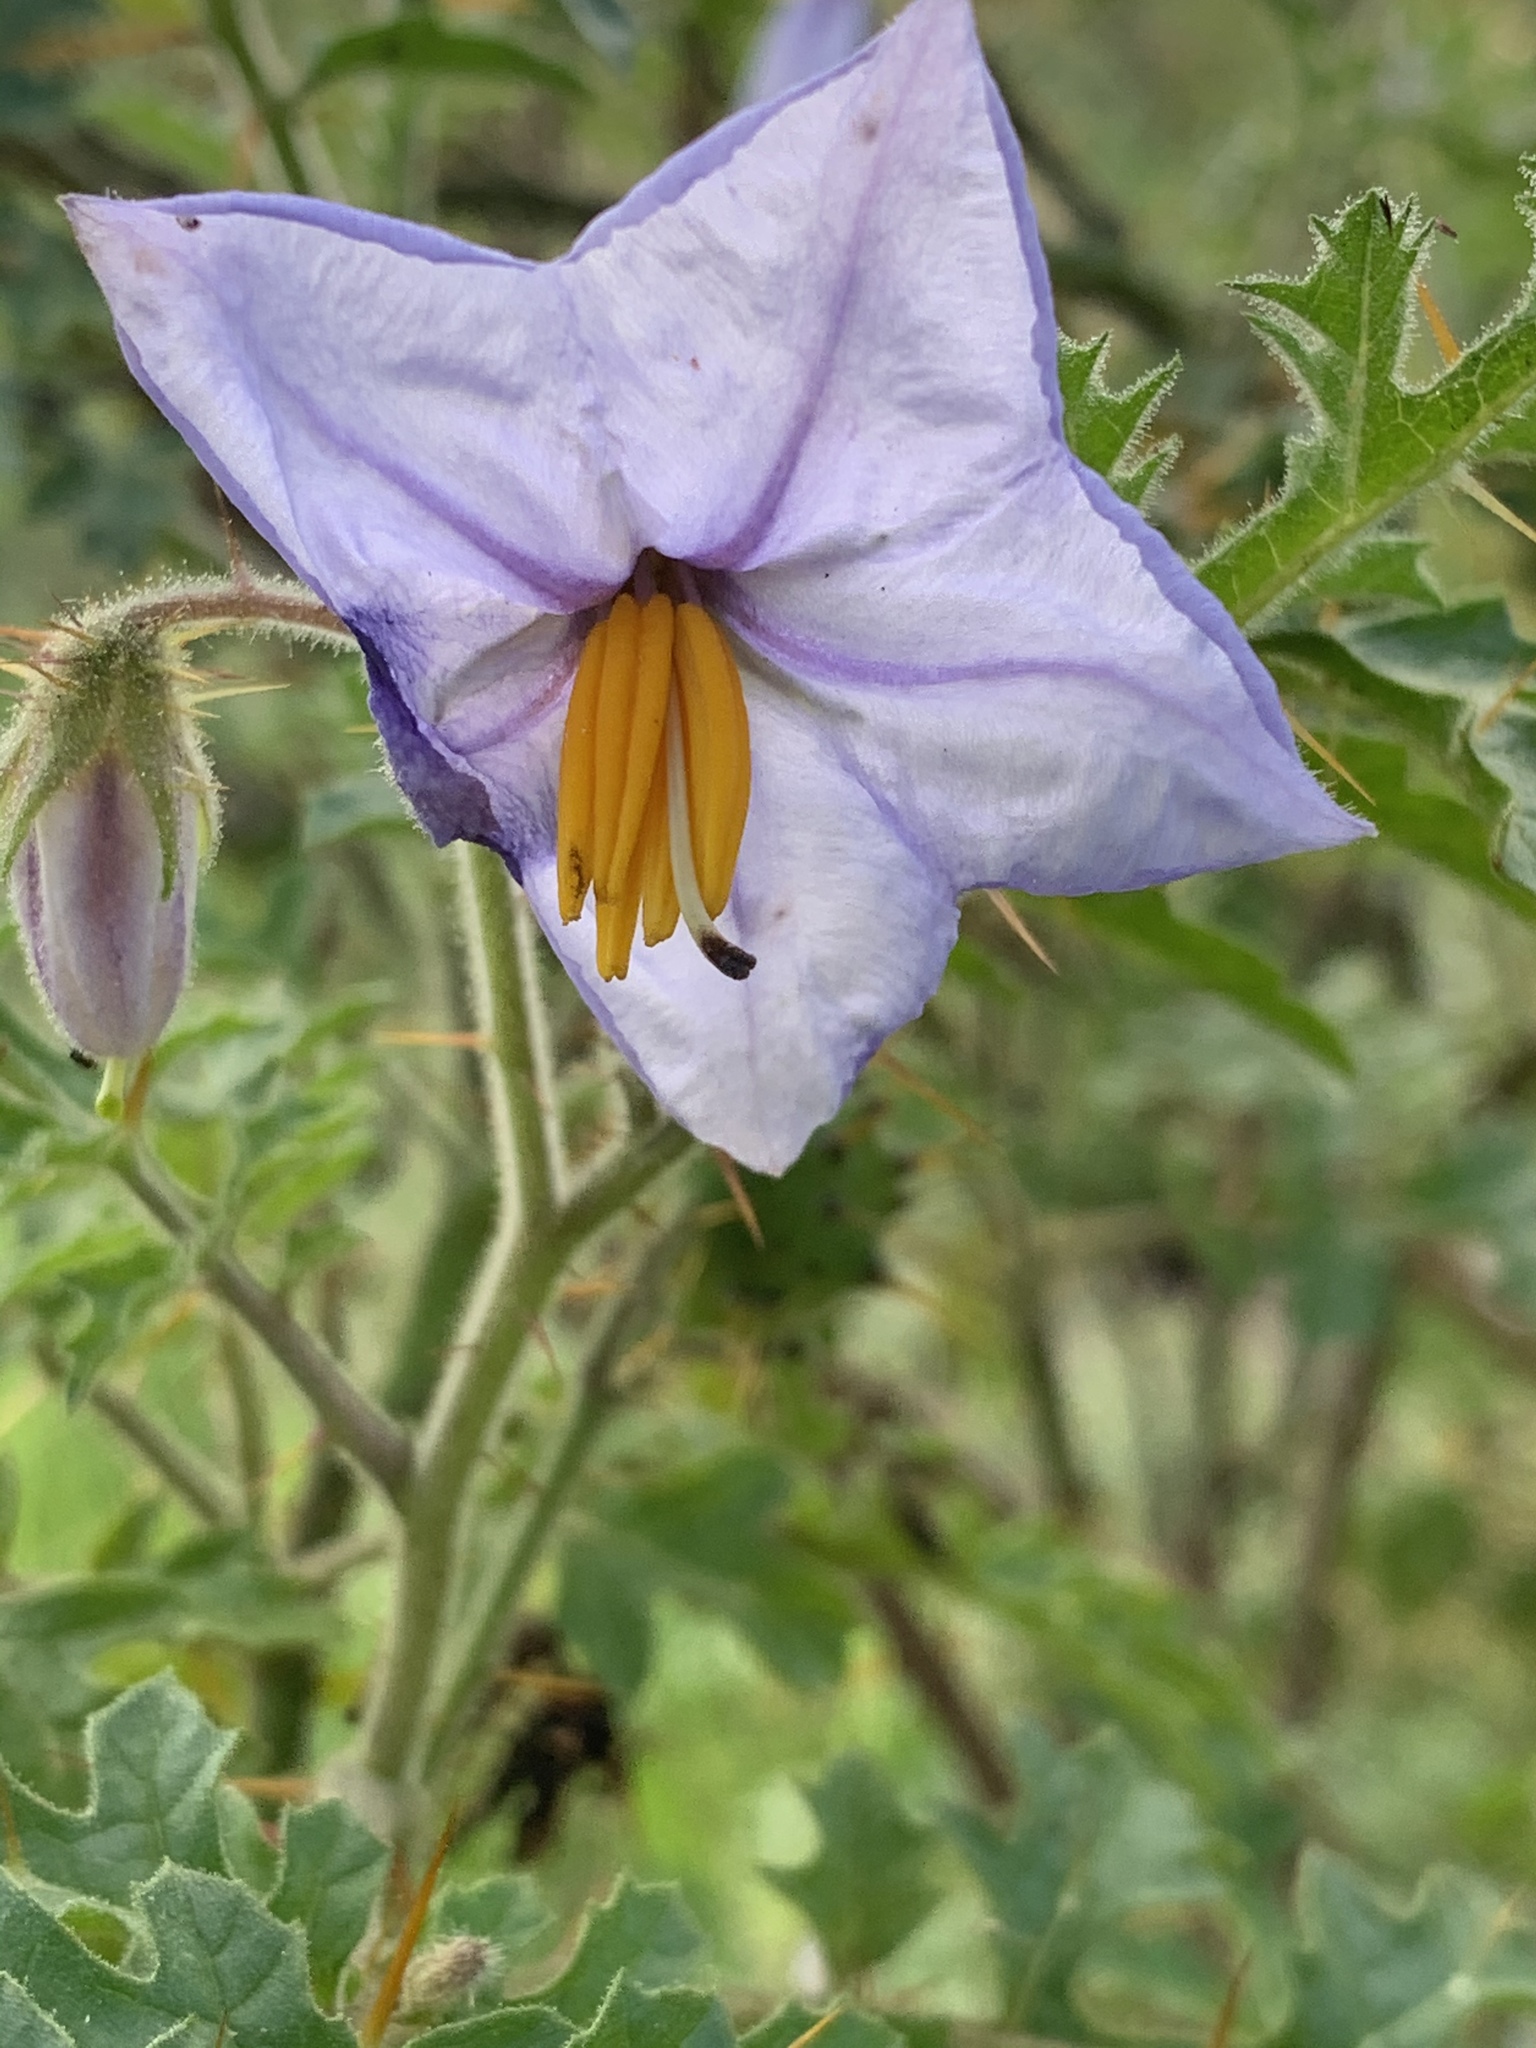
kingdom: Plantae
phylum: Tracheophyta
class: Magnoliopsida
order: Solanales
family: Solanaceae
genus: Solanum
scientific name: Solanum sisymbriifolium
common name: Red buffalo-bur
